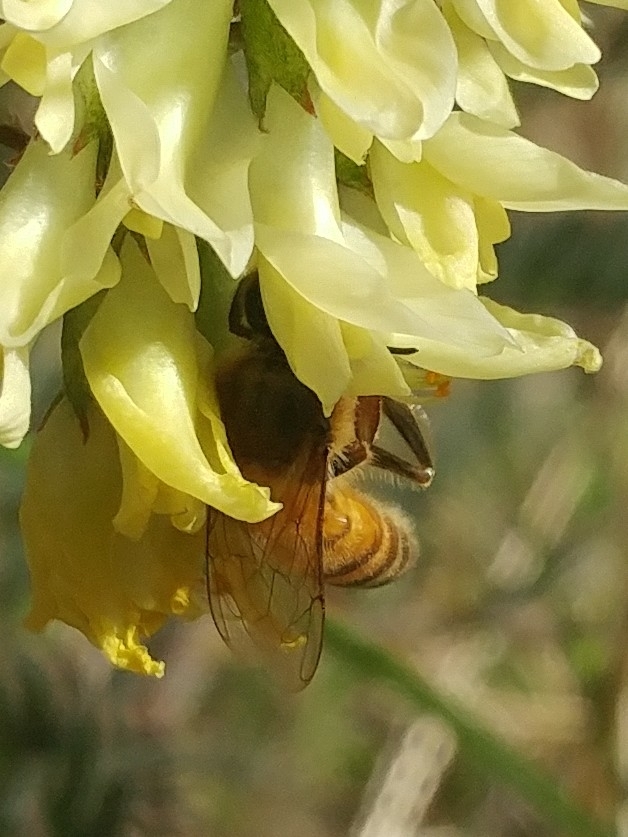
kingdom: Animalia
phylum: Arthropoda
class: Insecta
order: Hymenoptera
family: Apidae
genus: Apis
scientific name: Apis mellifera
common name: Honey bee
